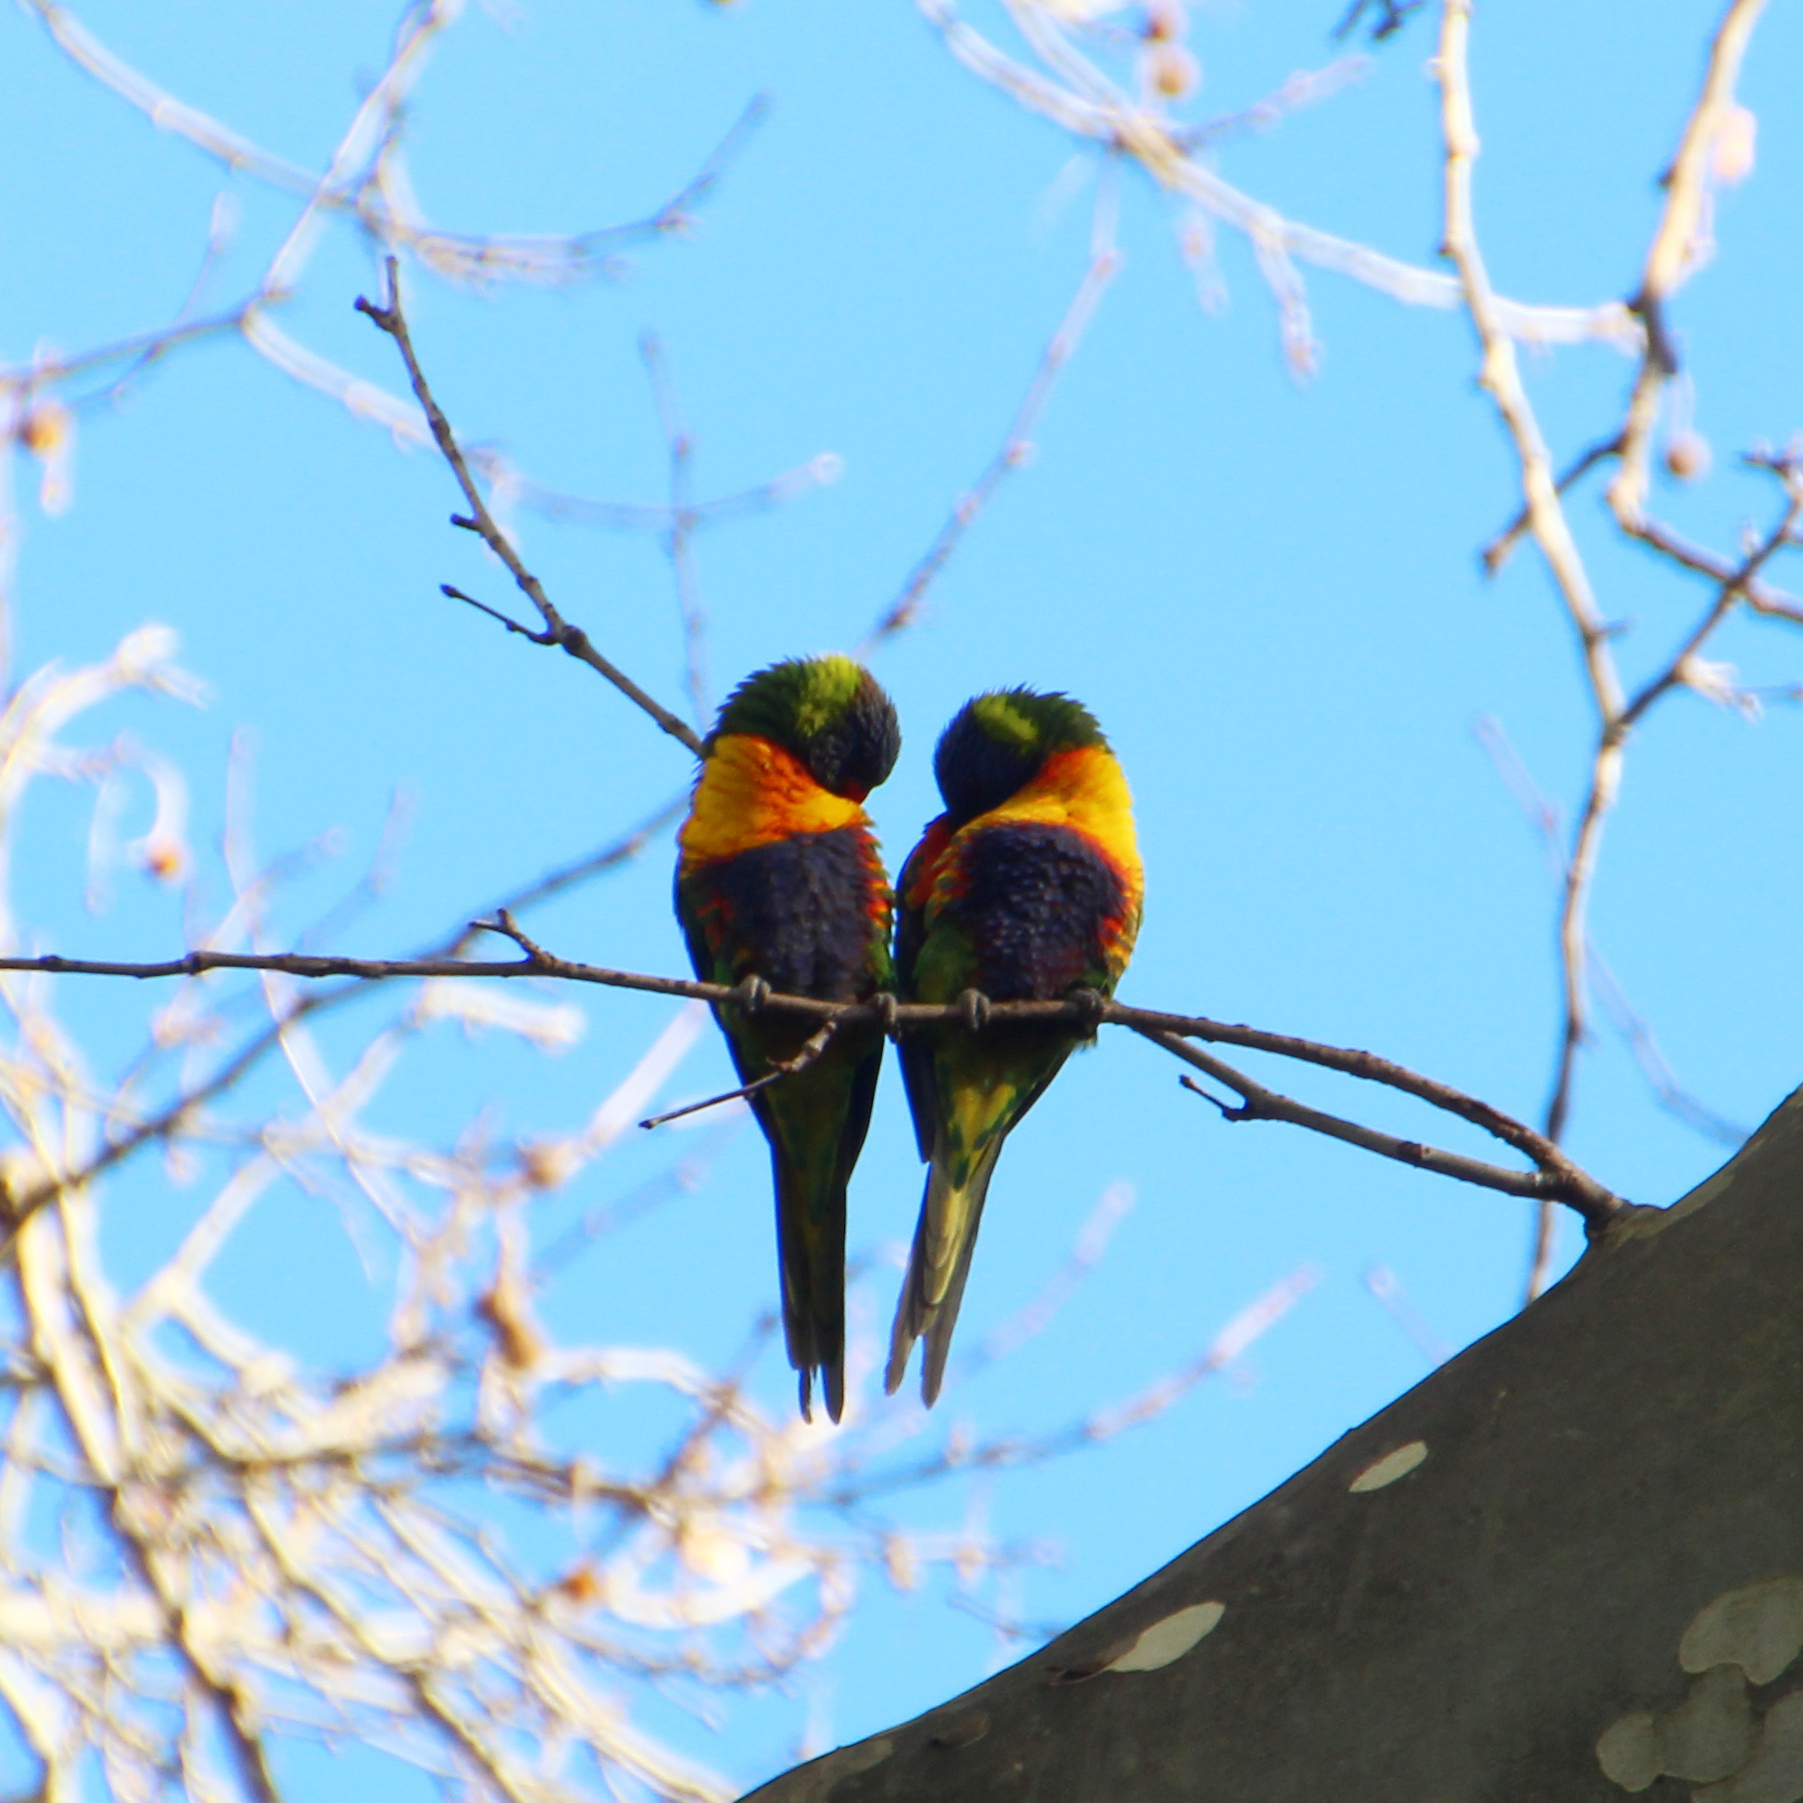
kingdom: Animalia
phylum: Chordata
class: Aves
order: Psittaciformes
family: Psittacidae
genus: Trichoglossus
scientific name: Trichoglossus haematodus
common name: Coconut lorikeet
